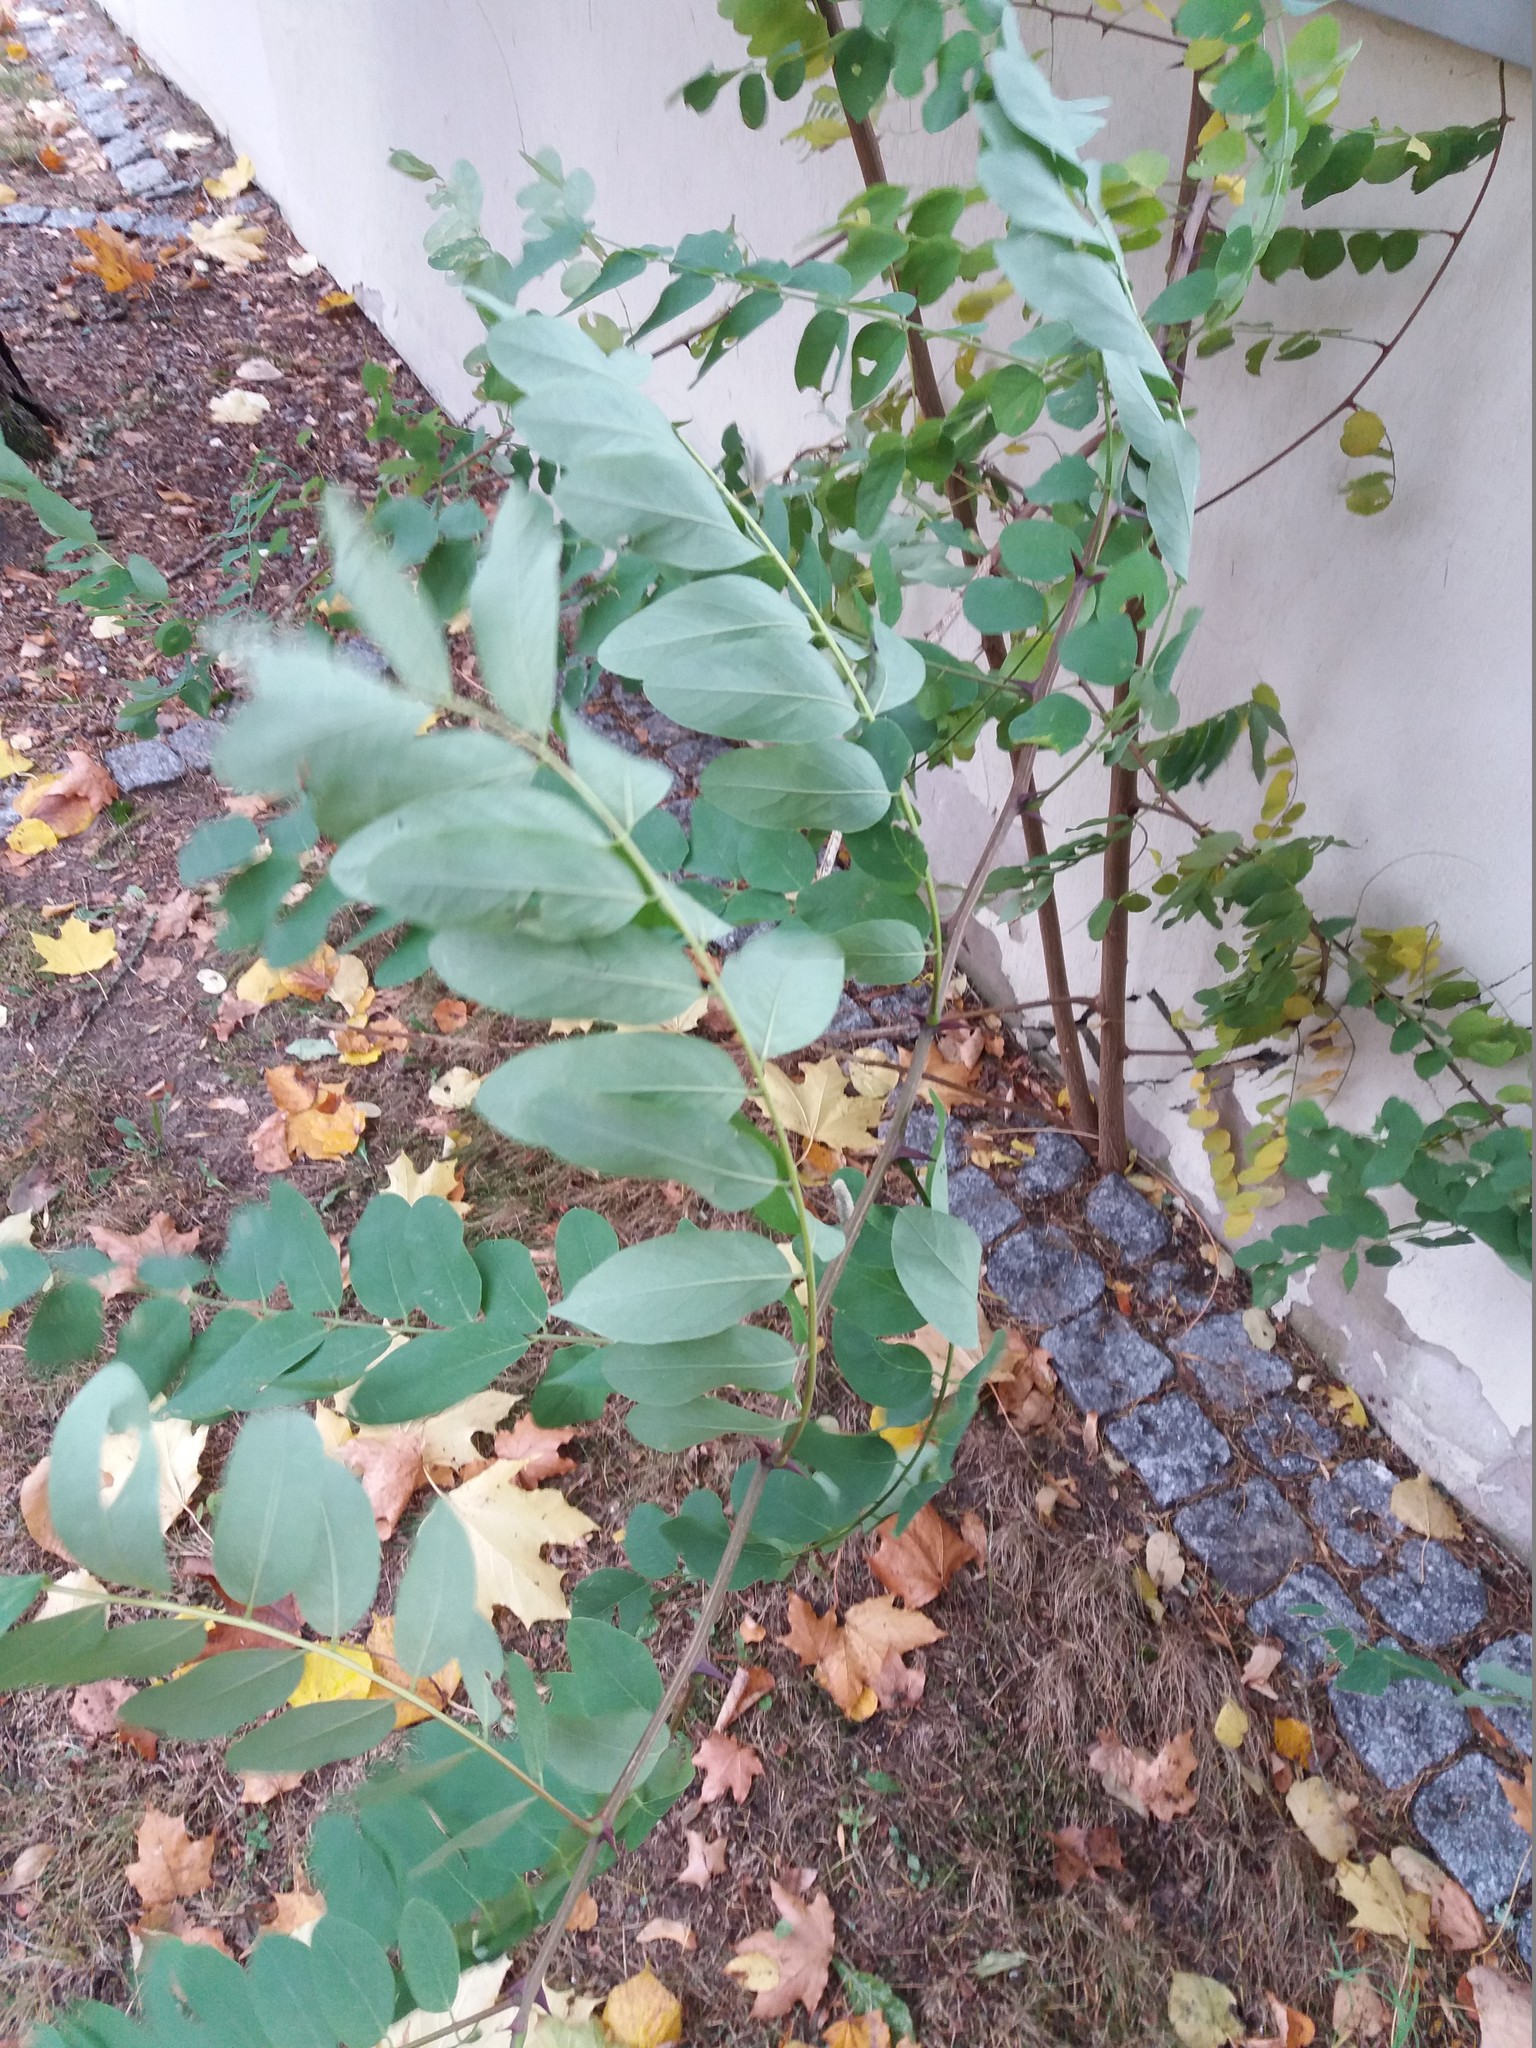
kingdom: Plantae
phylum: Tracheophyta
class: Magnoliopsida
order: Fabales
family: Fabaceae
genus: Robinia
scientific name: Robinia pseudoacacia
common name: Black locust
